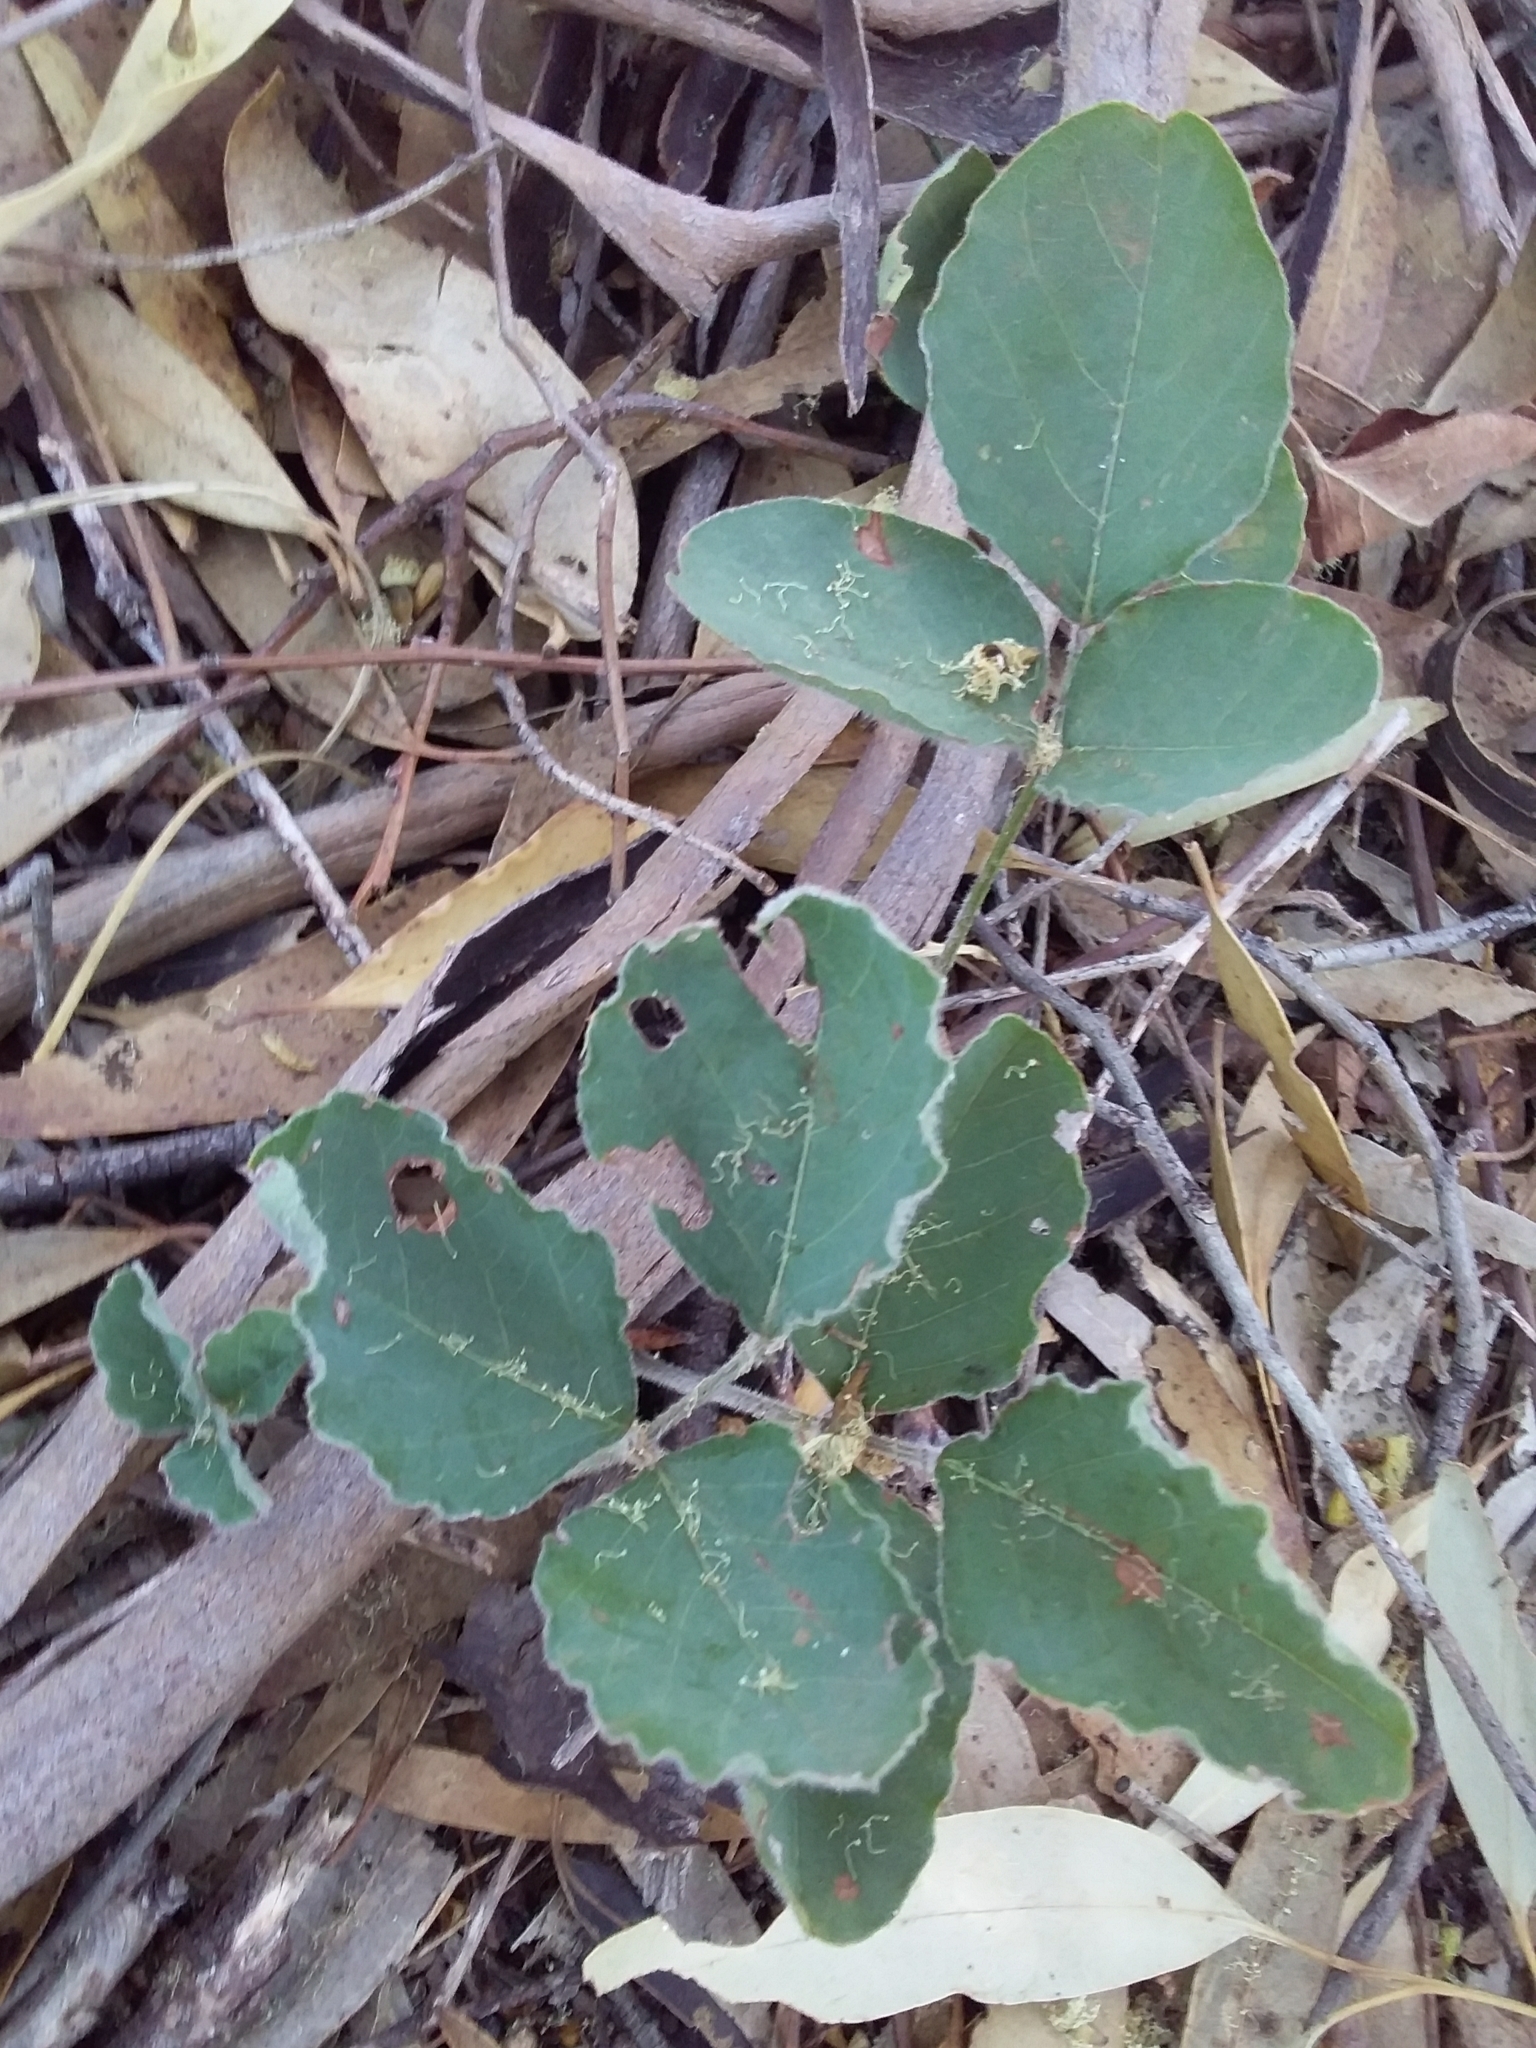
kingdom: Plantae
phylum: Tracheophyta
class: Magnoliopsida
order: Fabales
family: Fabaceae
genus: Kennedia
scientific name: Kennedia prostrata
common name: Running-postman
